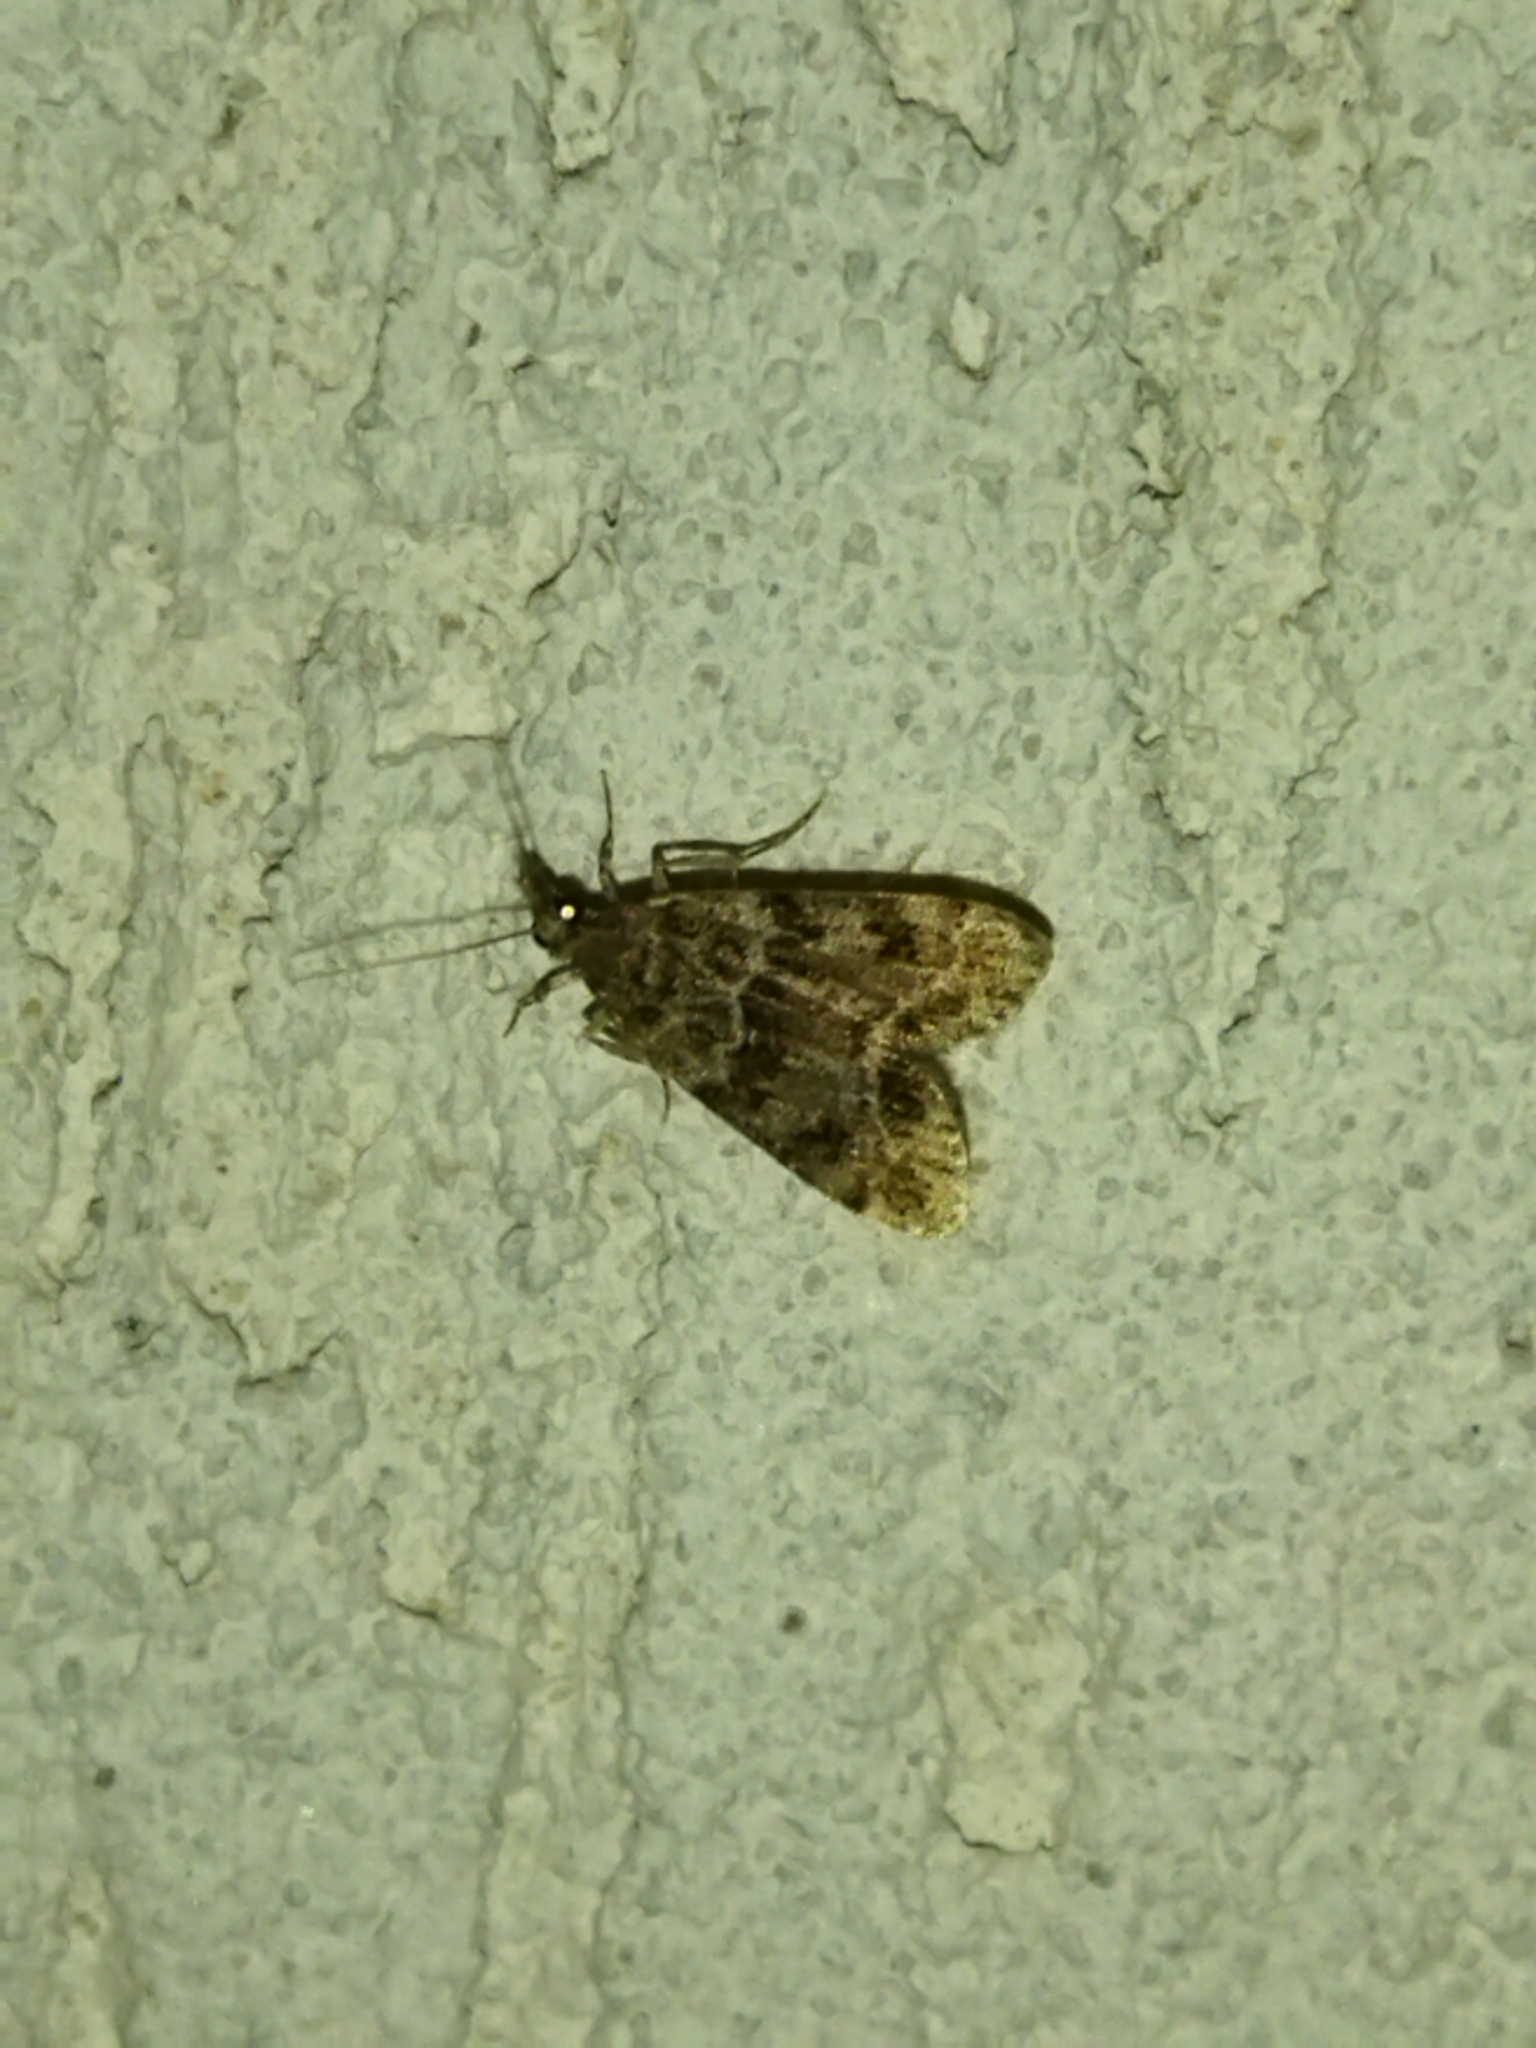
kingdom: Animalia
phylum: Arthropoda
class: Insecta
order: Lepidoptera
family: Crambidae
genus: Eudonia
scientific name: Eudonia mercurella
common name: Small grey
